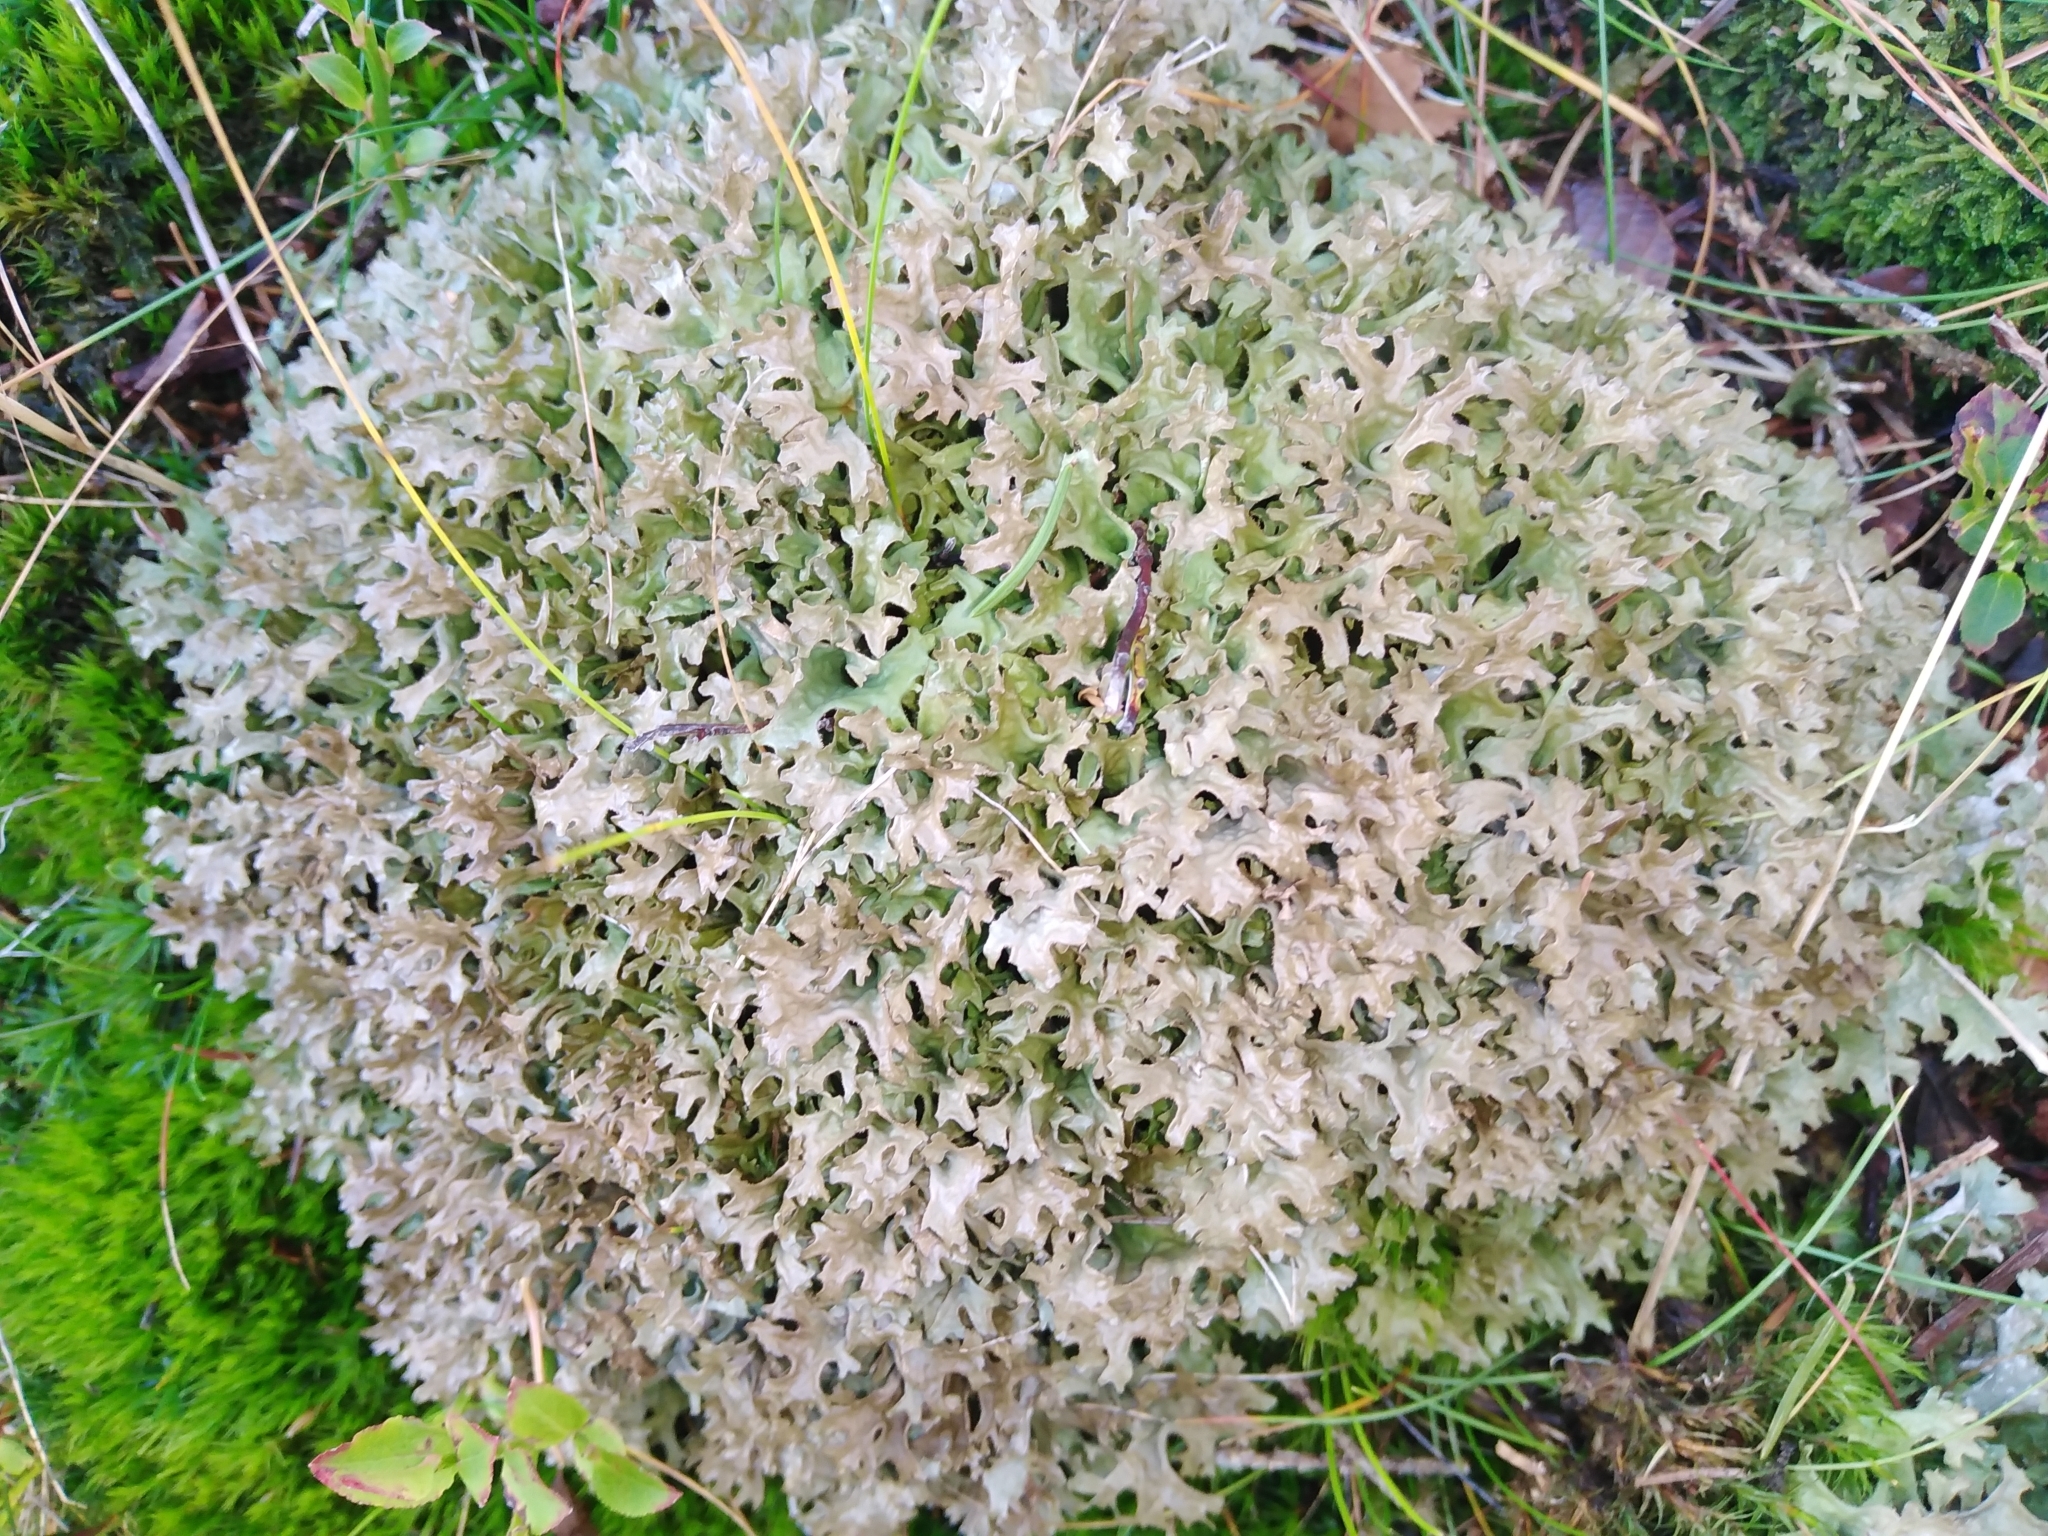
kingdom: Fungi
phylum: Ascomycota
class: Lecanoromycetes
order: Lecanorales
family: Parmeliaceae
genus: Cetraria
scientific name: Cetraria islandica
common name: Iceland lichen
